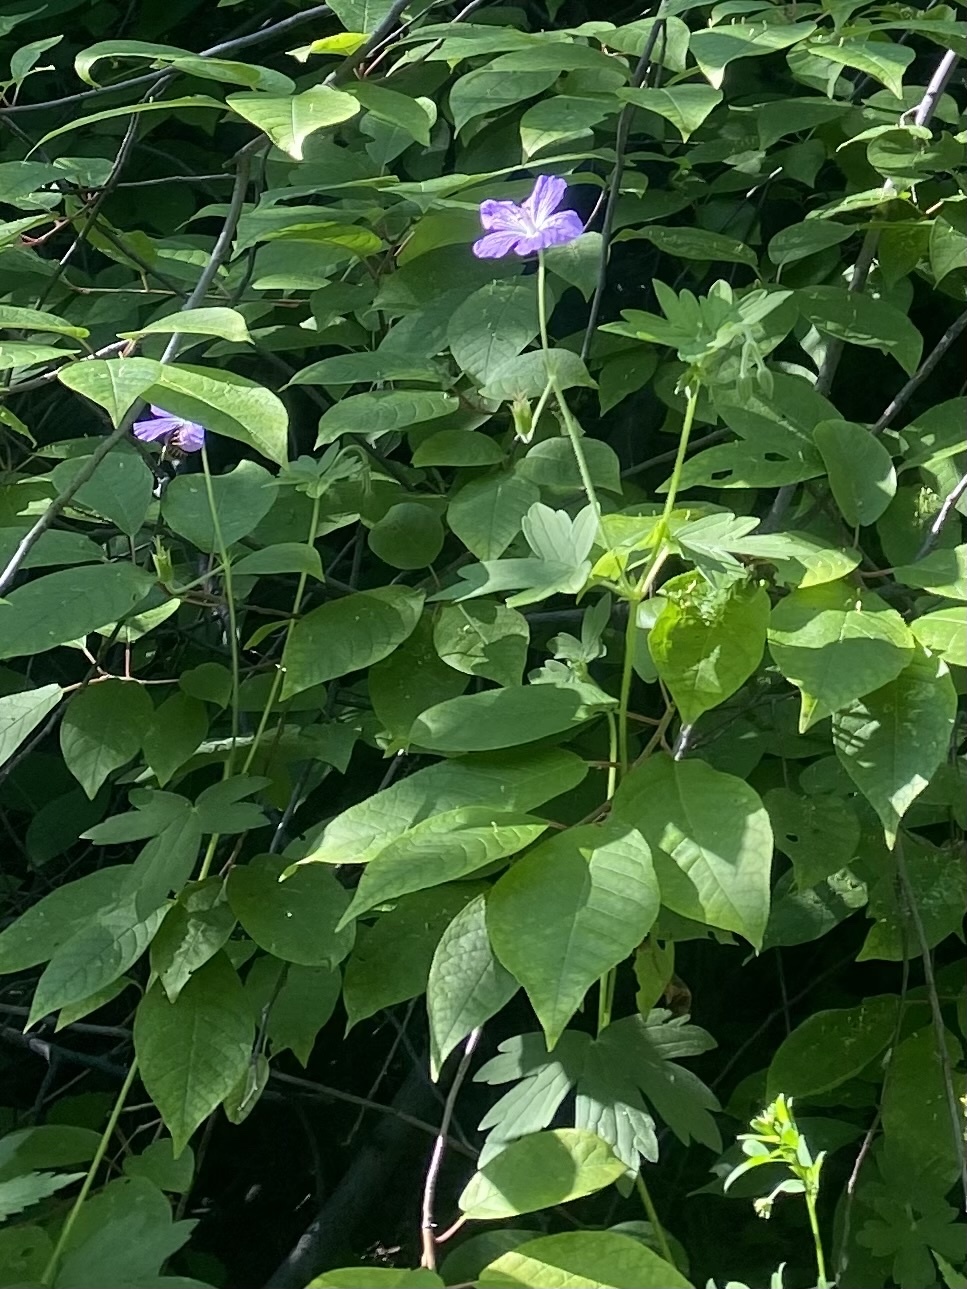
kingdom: Plantae
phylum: Tracheophyta
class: Magnoliopsida
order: Geraniales
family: Geraniaceae
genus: Geranium
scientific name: Geranium wlassovianum
